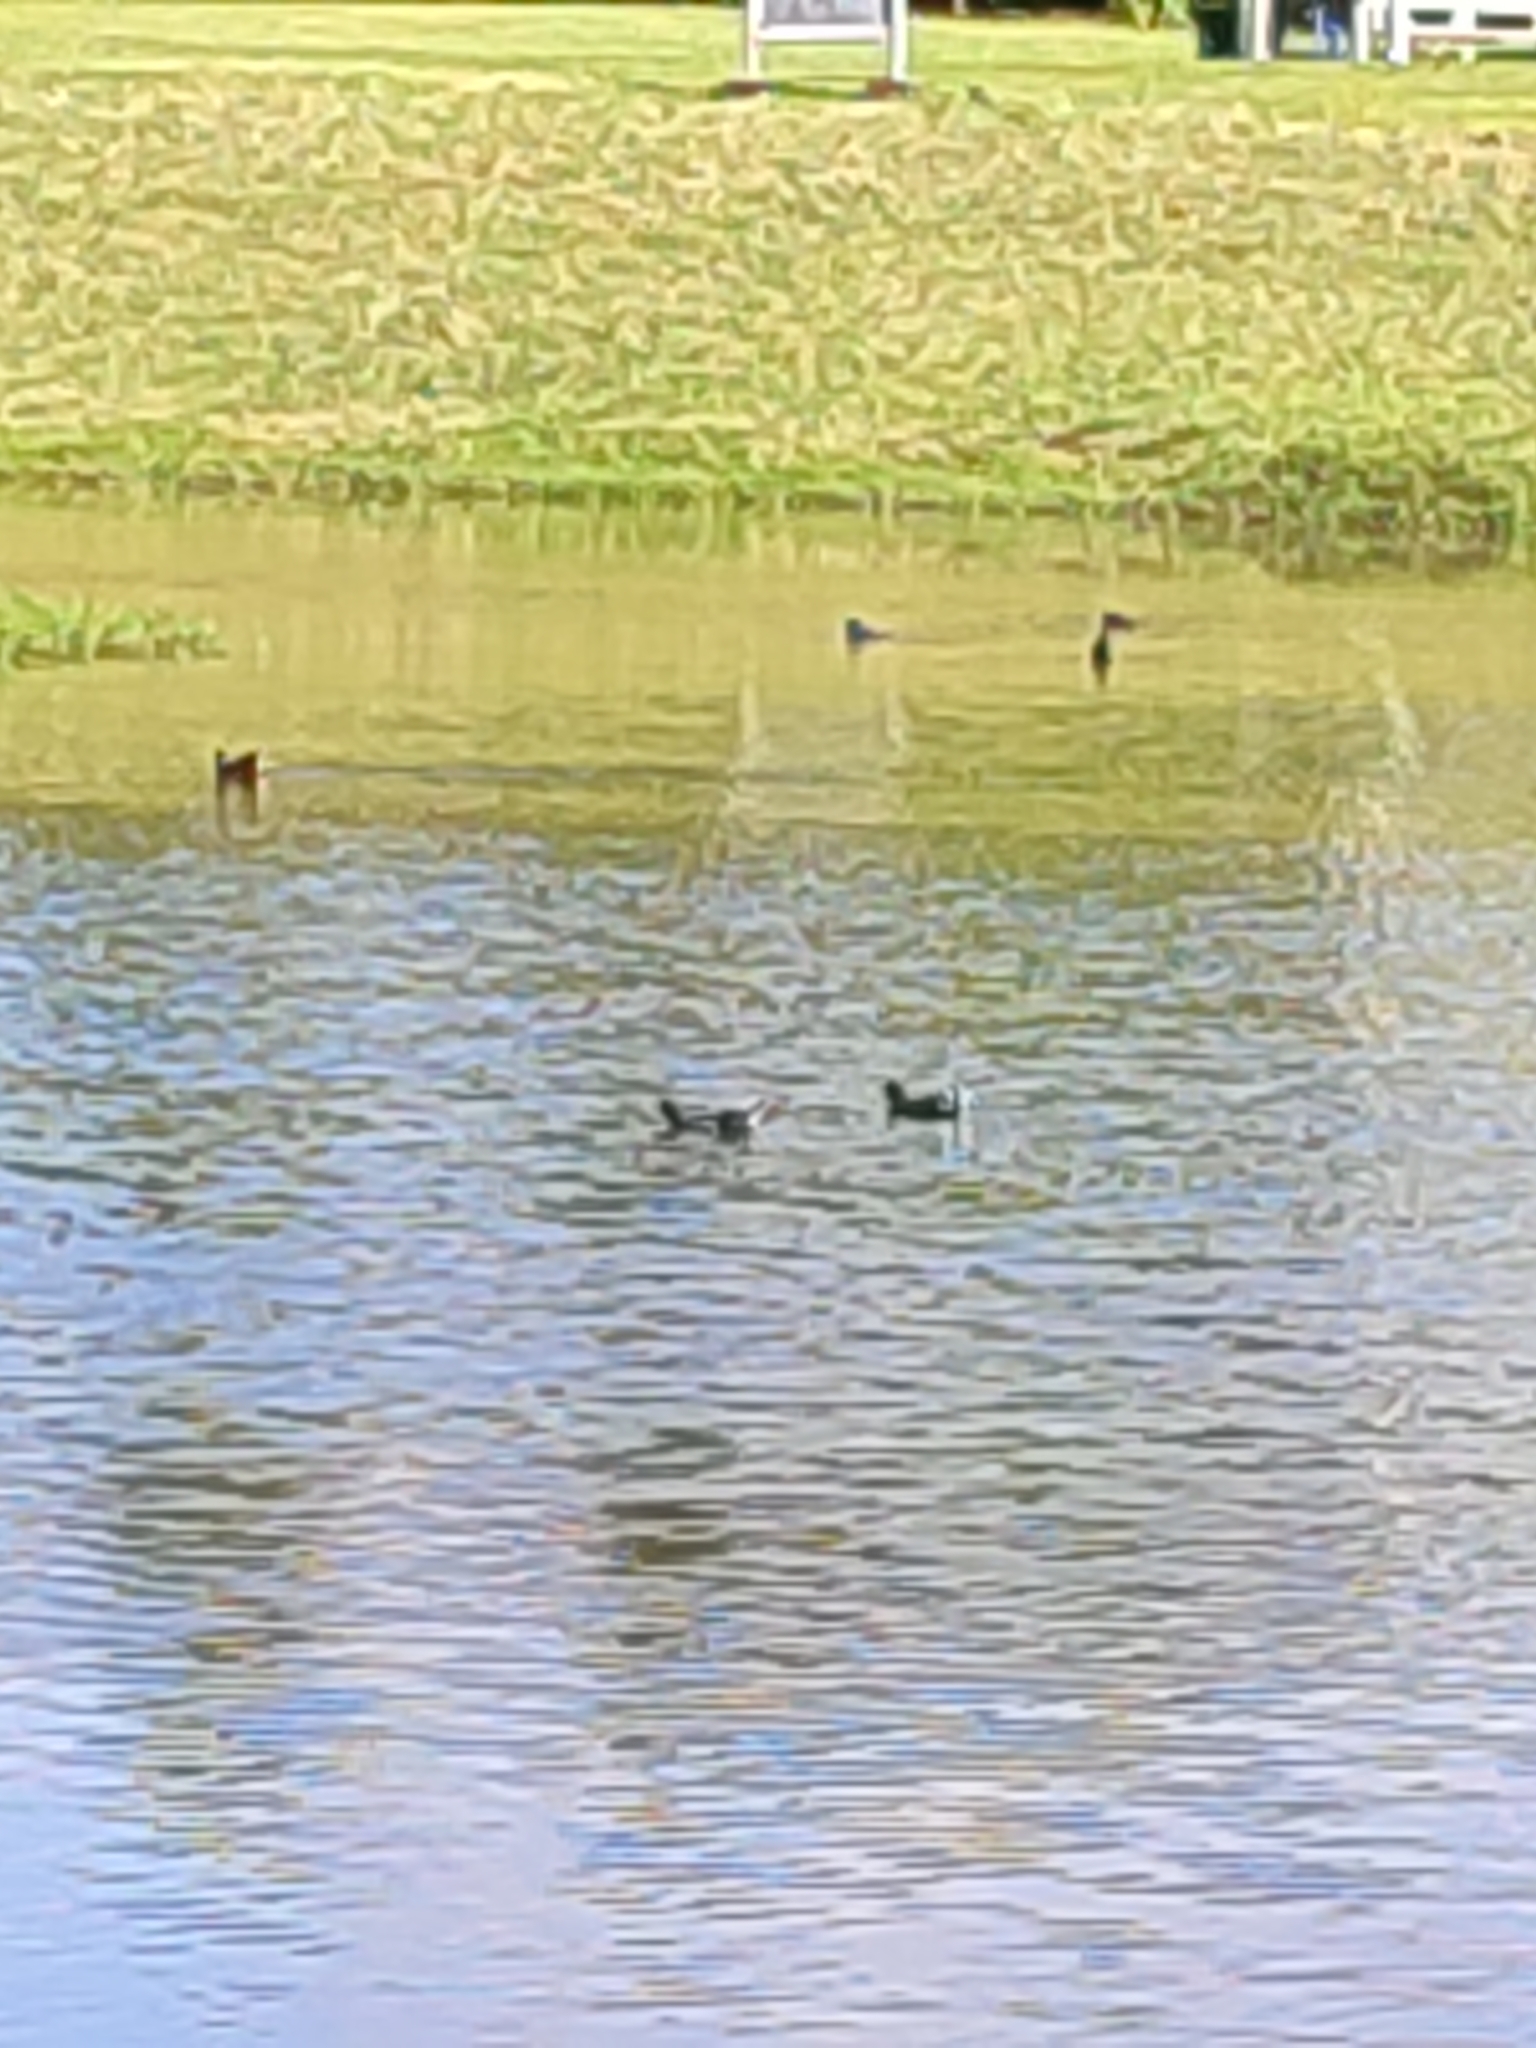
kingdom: Animalia
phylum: Chordata
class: Aves
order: Gruiformes
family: Rallidae
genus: Gallinula
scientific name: Gallinula chloropus
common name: Common moorhen
